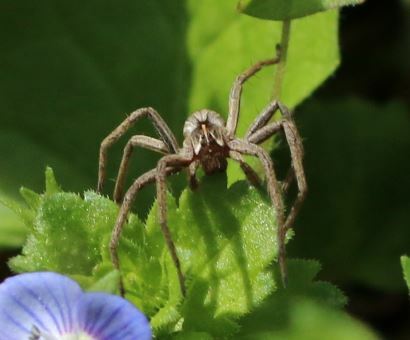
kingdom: Animalia
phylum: Arthropoda
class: Arachnida
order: Araneae
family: Pisauridae
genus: Pisaura
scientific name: Pisaura mirabilis
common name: Tent spider
